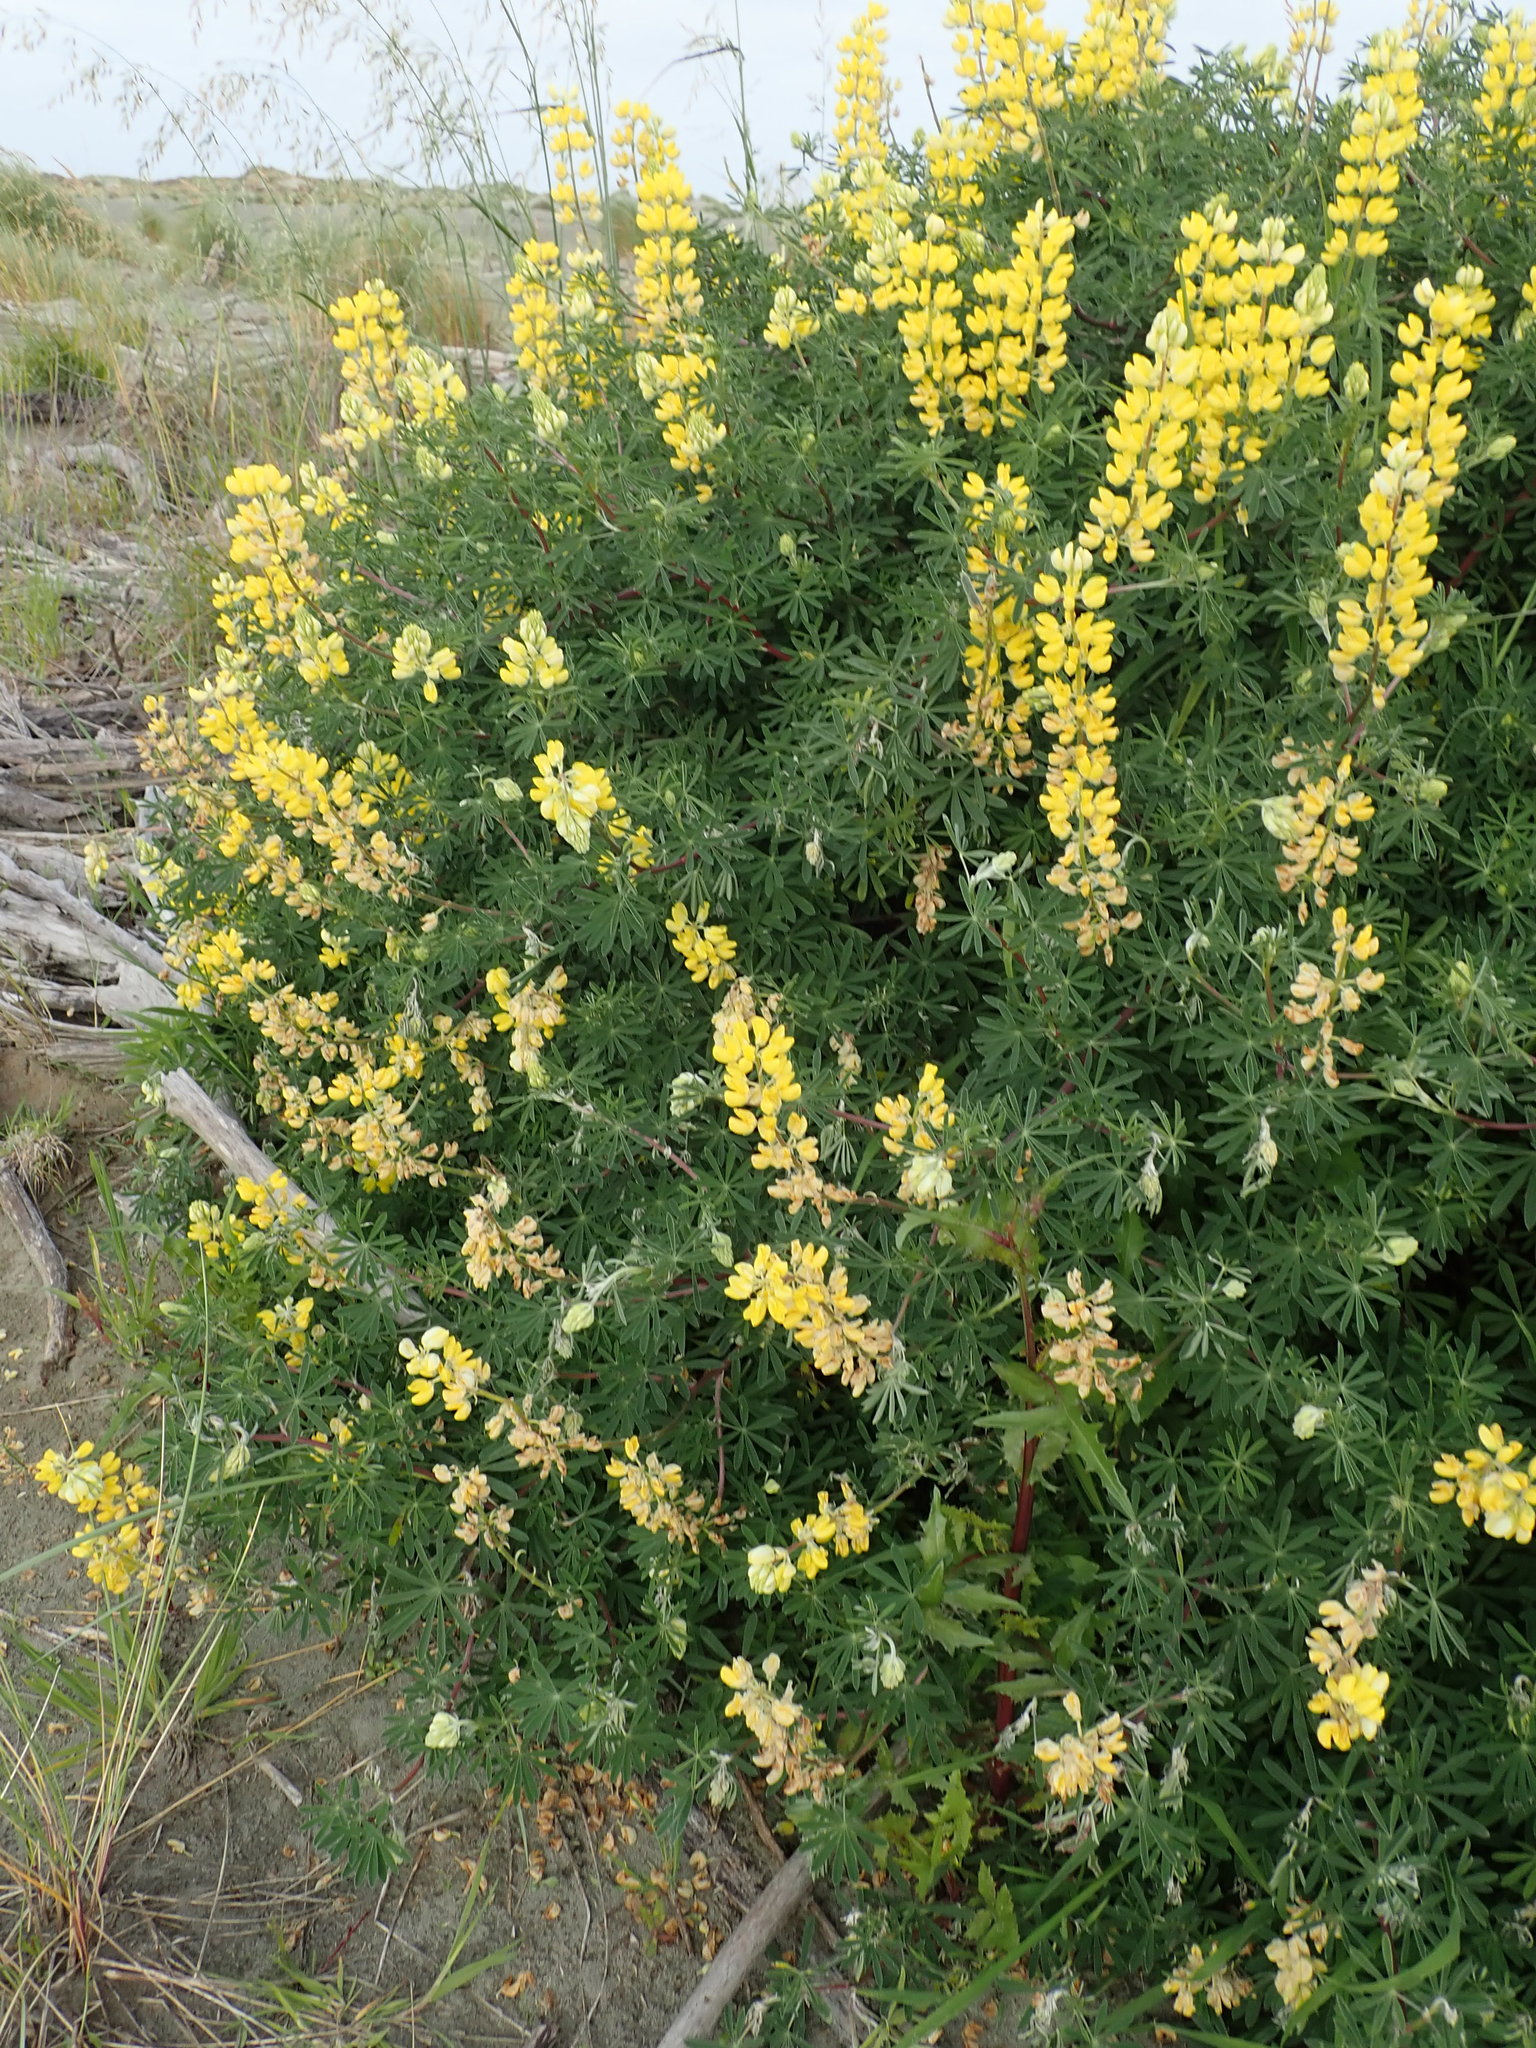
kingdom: Plantae
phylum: Tracheophyta
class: Magnoliopsida
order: Fabales
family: Fabaceae
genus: Lupinus
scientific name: Lupinus arboreus
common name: Yellow bush lupine
